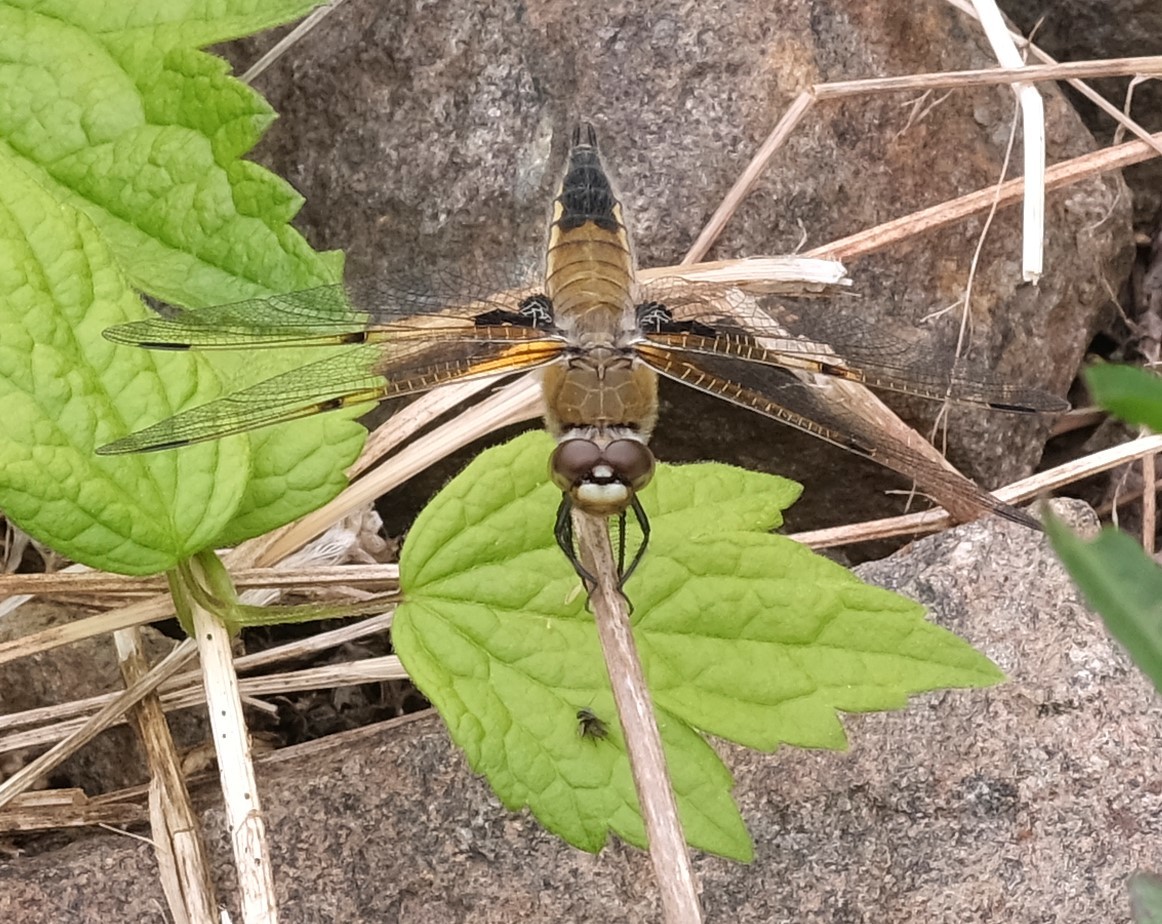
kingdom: Animalia
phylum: Arthropoda
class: Insecta
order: Odonata
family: Libellulidae
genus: Libellula
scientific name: Libellula quadrimaculata
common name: Four-spotted chaser
